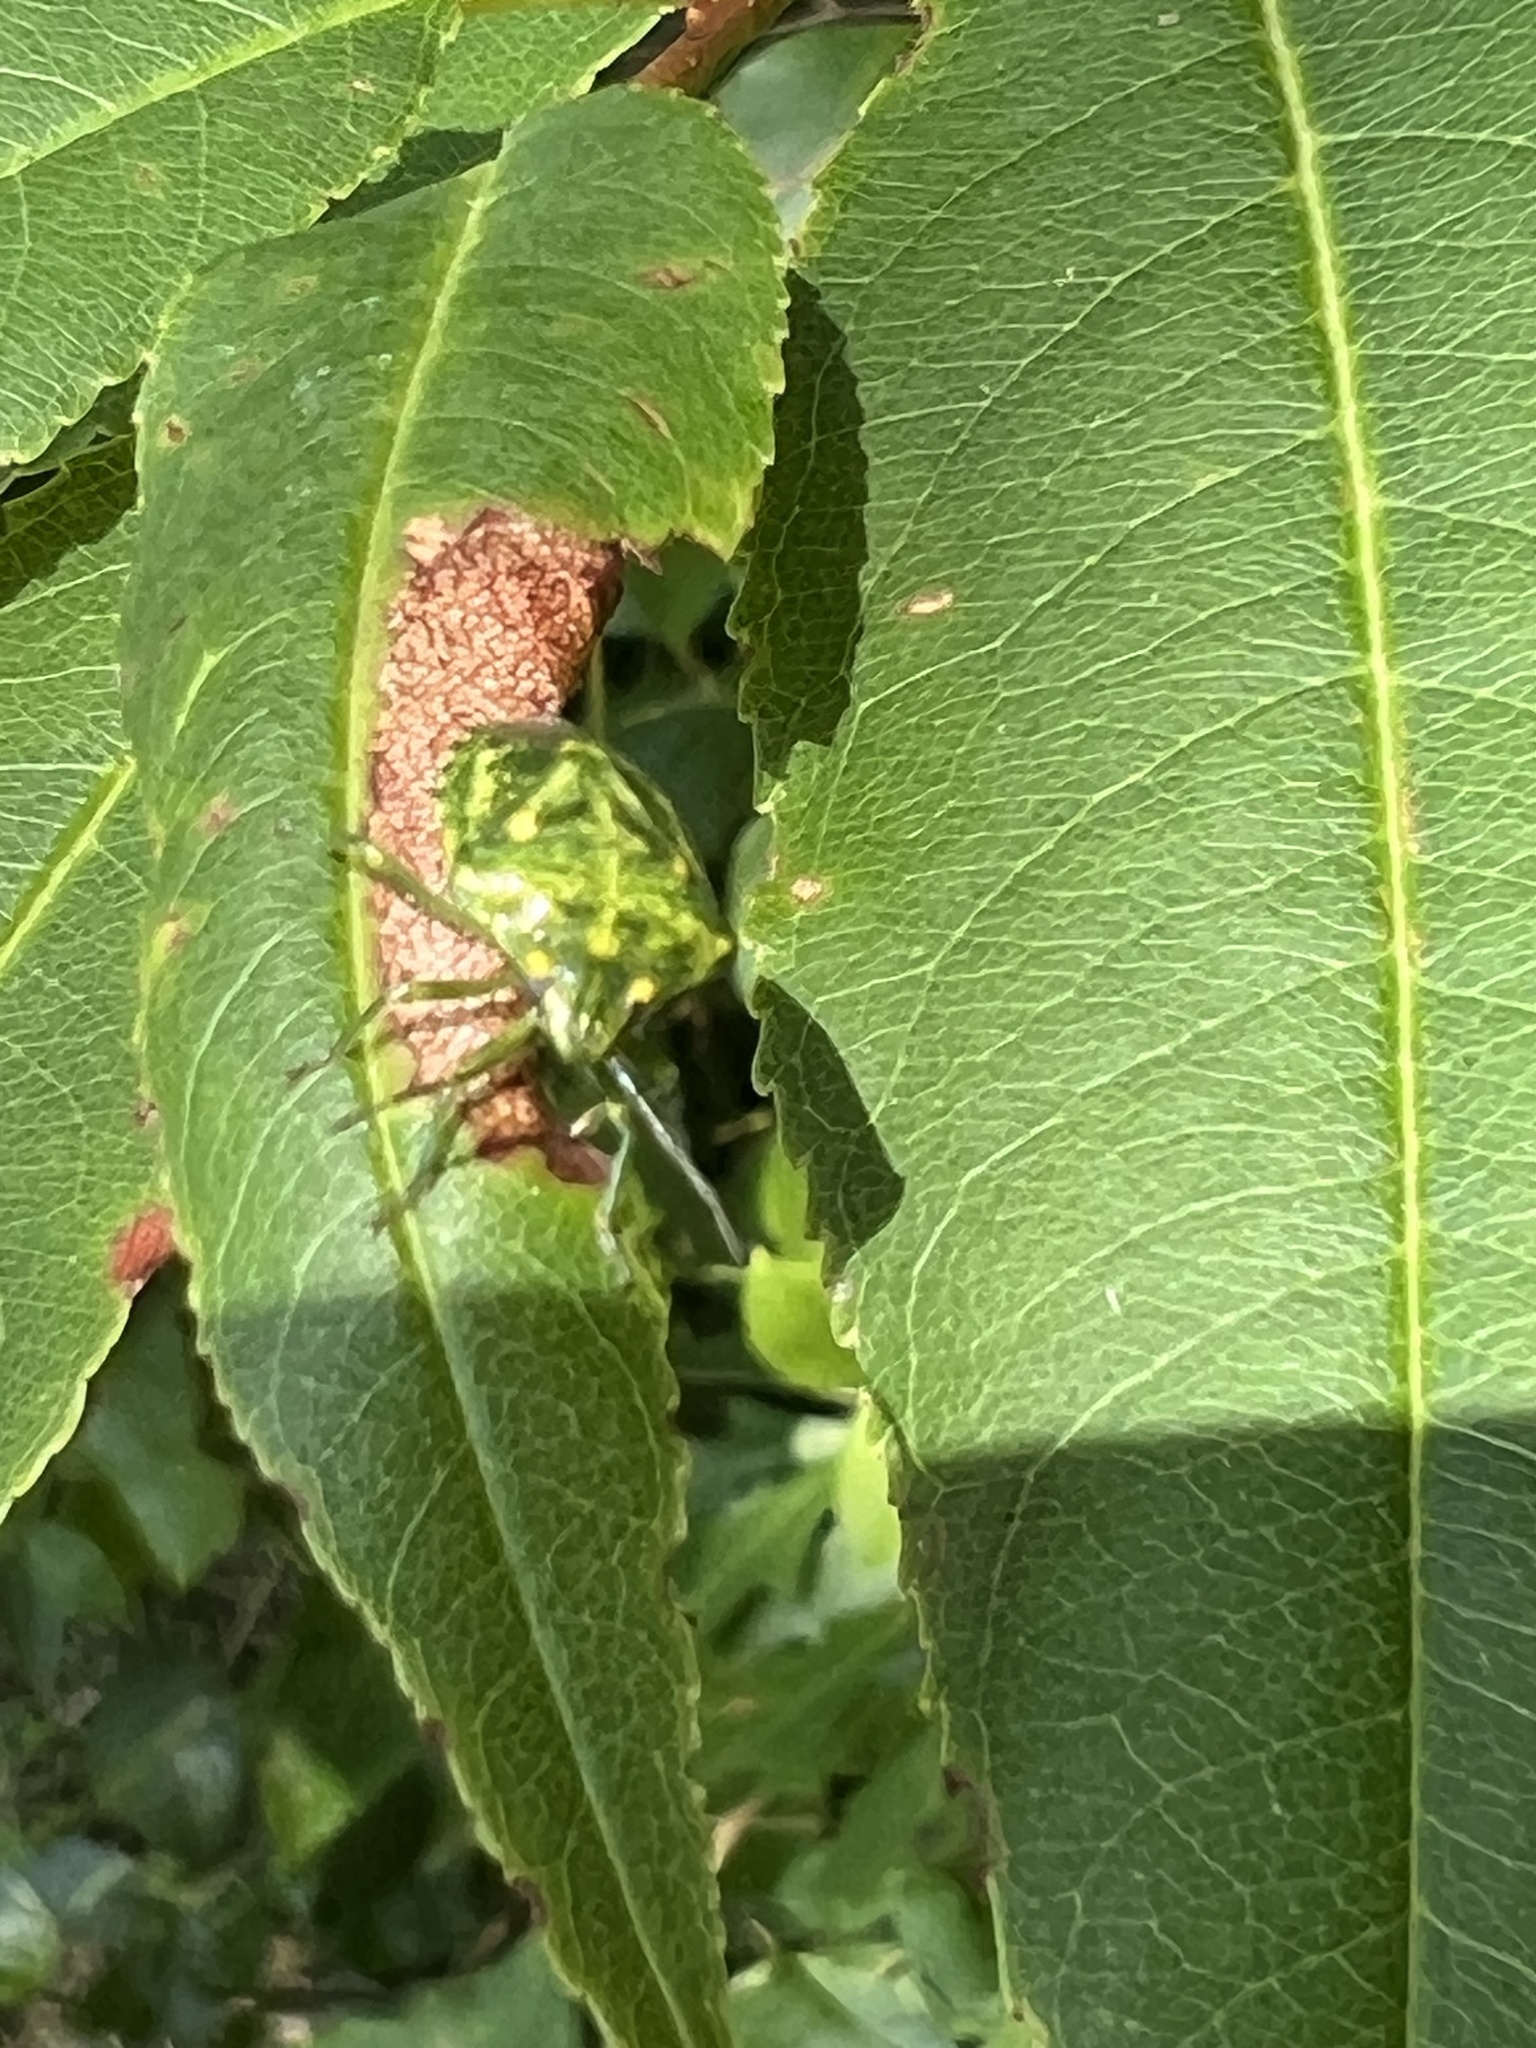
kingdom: Animalia
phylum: Arthropoda
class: Insecta
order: Hemiptera
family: Pentatomidae
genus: Banasa
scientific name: Banasa euchlora
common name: Cedar berry bug
